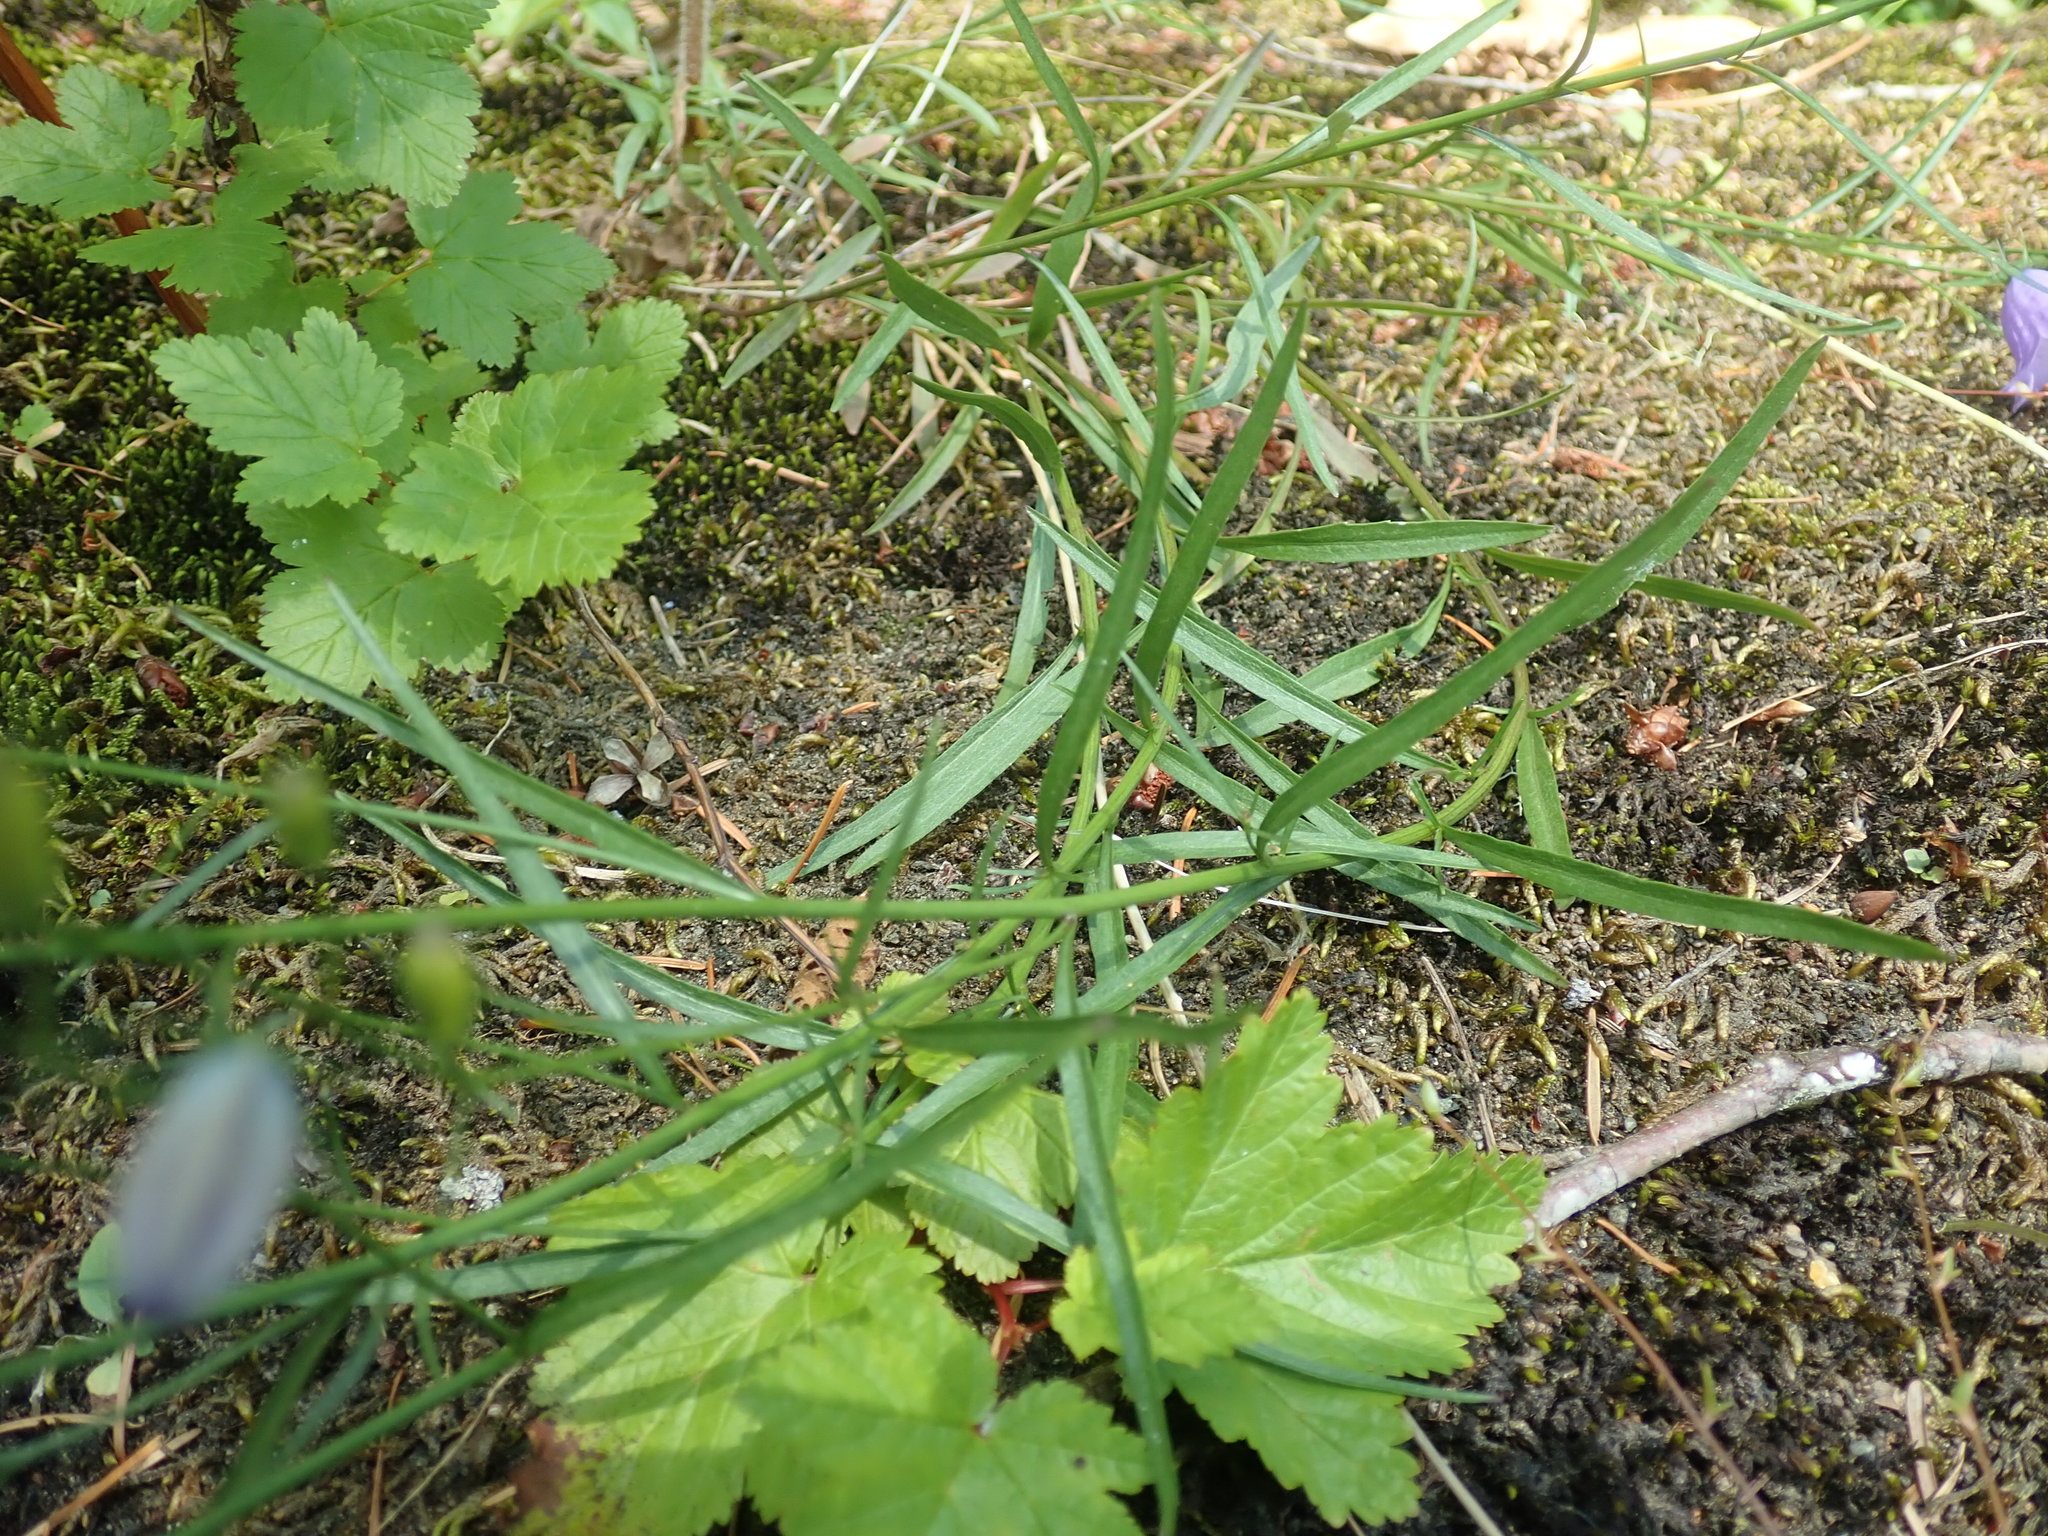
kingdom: Plantae
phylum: Tracheophyta
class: Magnoliopsida
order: Asterales
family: Campanulaceae
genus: Campanula
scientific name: Campanula alaskana
